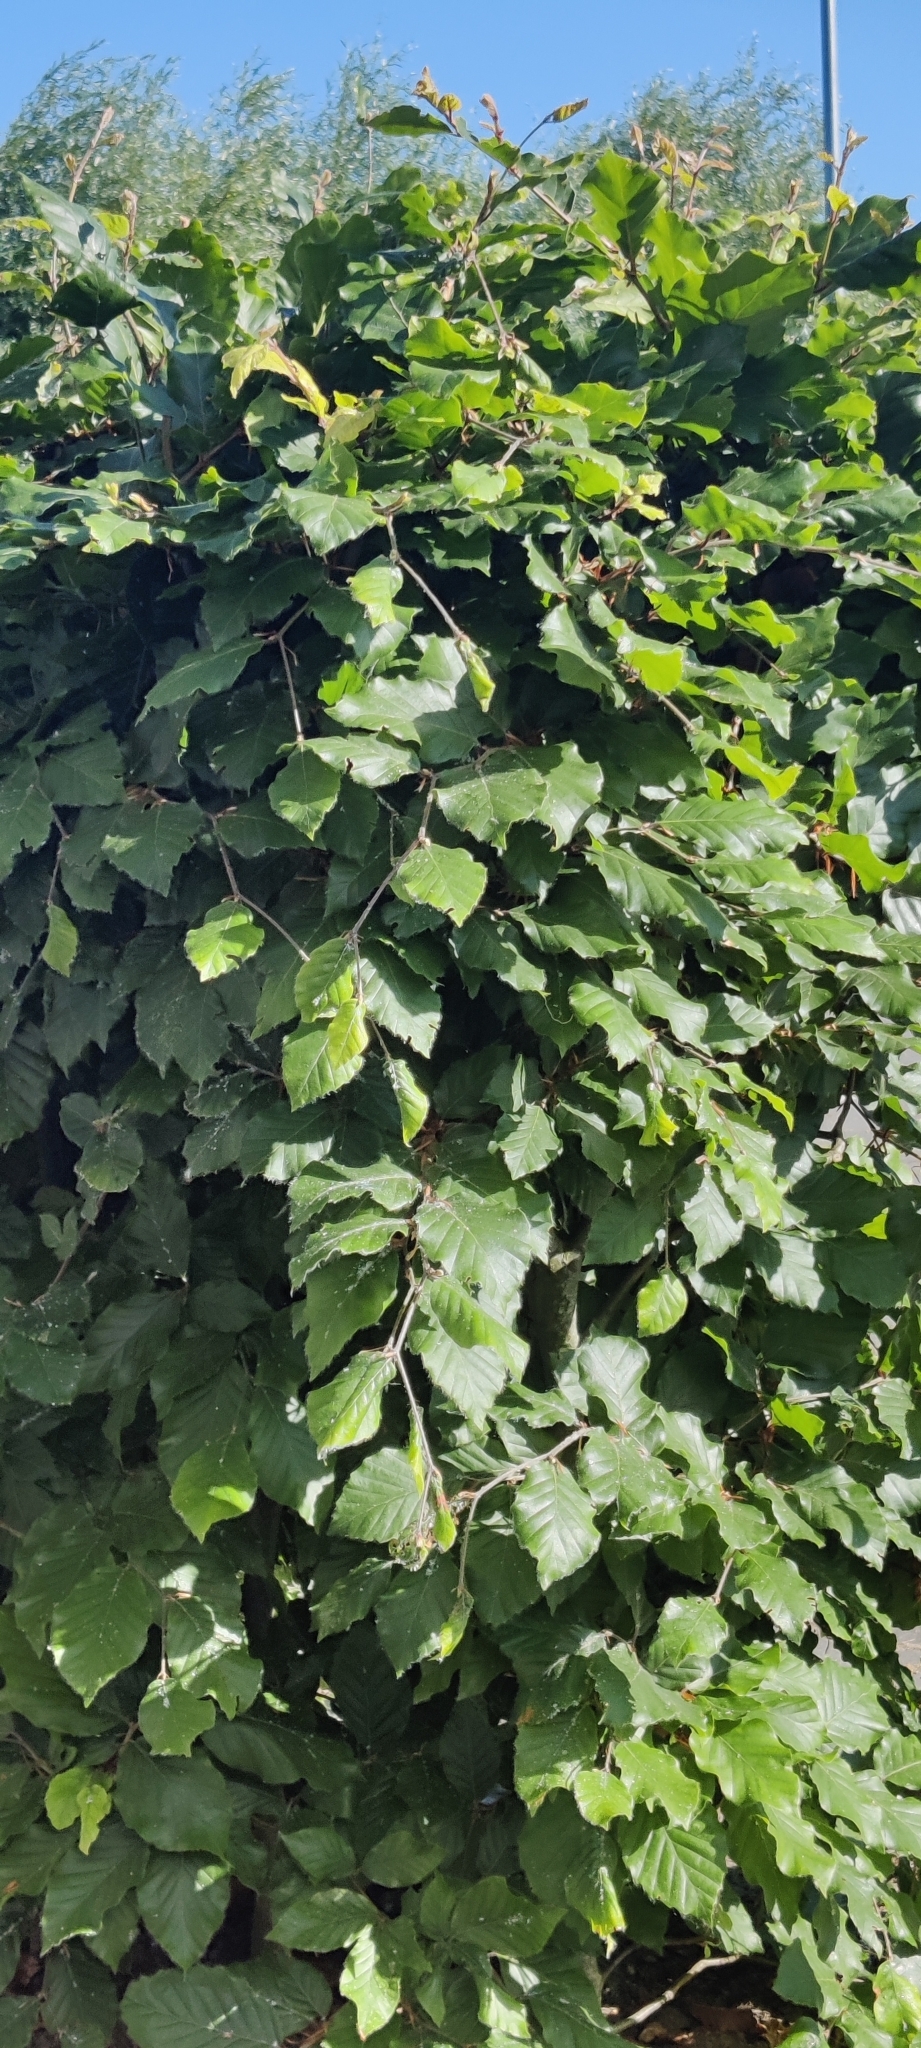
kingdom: Plantae
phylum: Tracheophyta
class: Magnoliopsida
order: Fagales
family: Fagaceae
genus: Fagus
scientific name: Fagus sylvatica
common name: Beech
